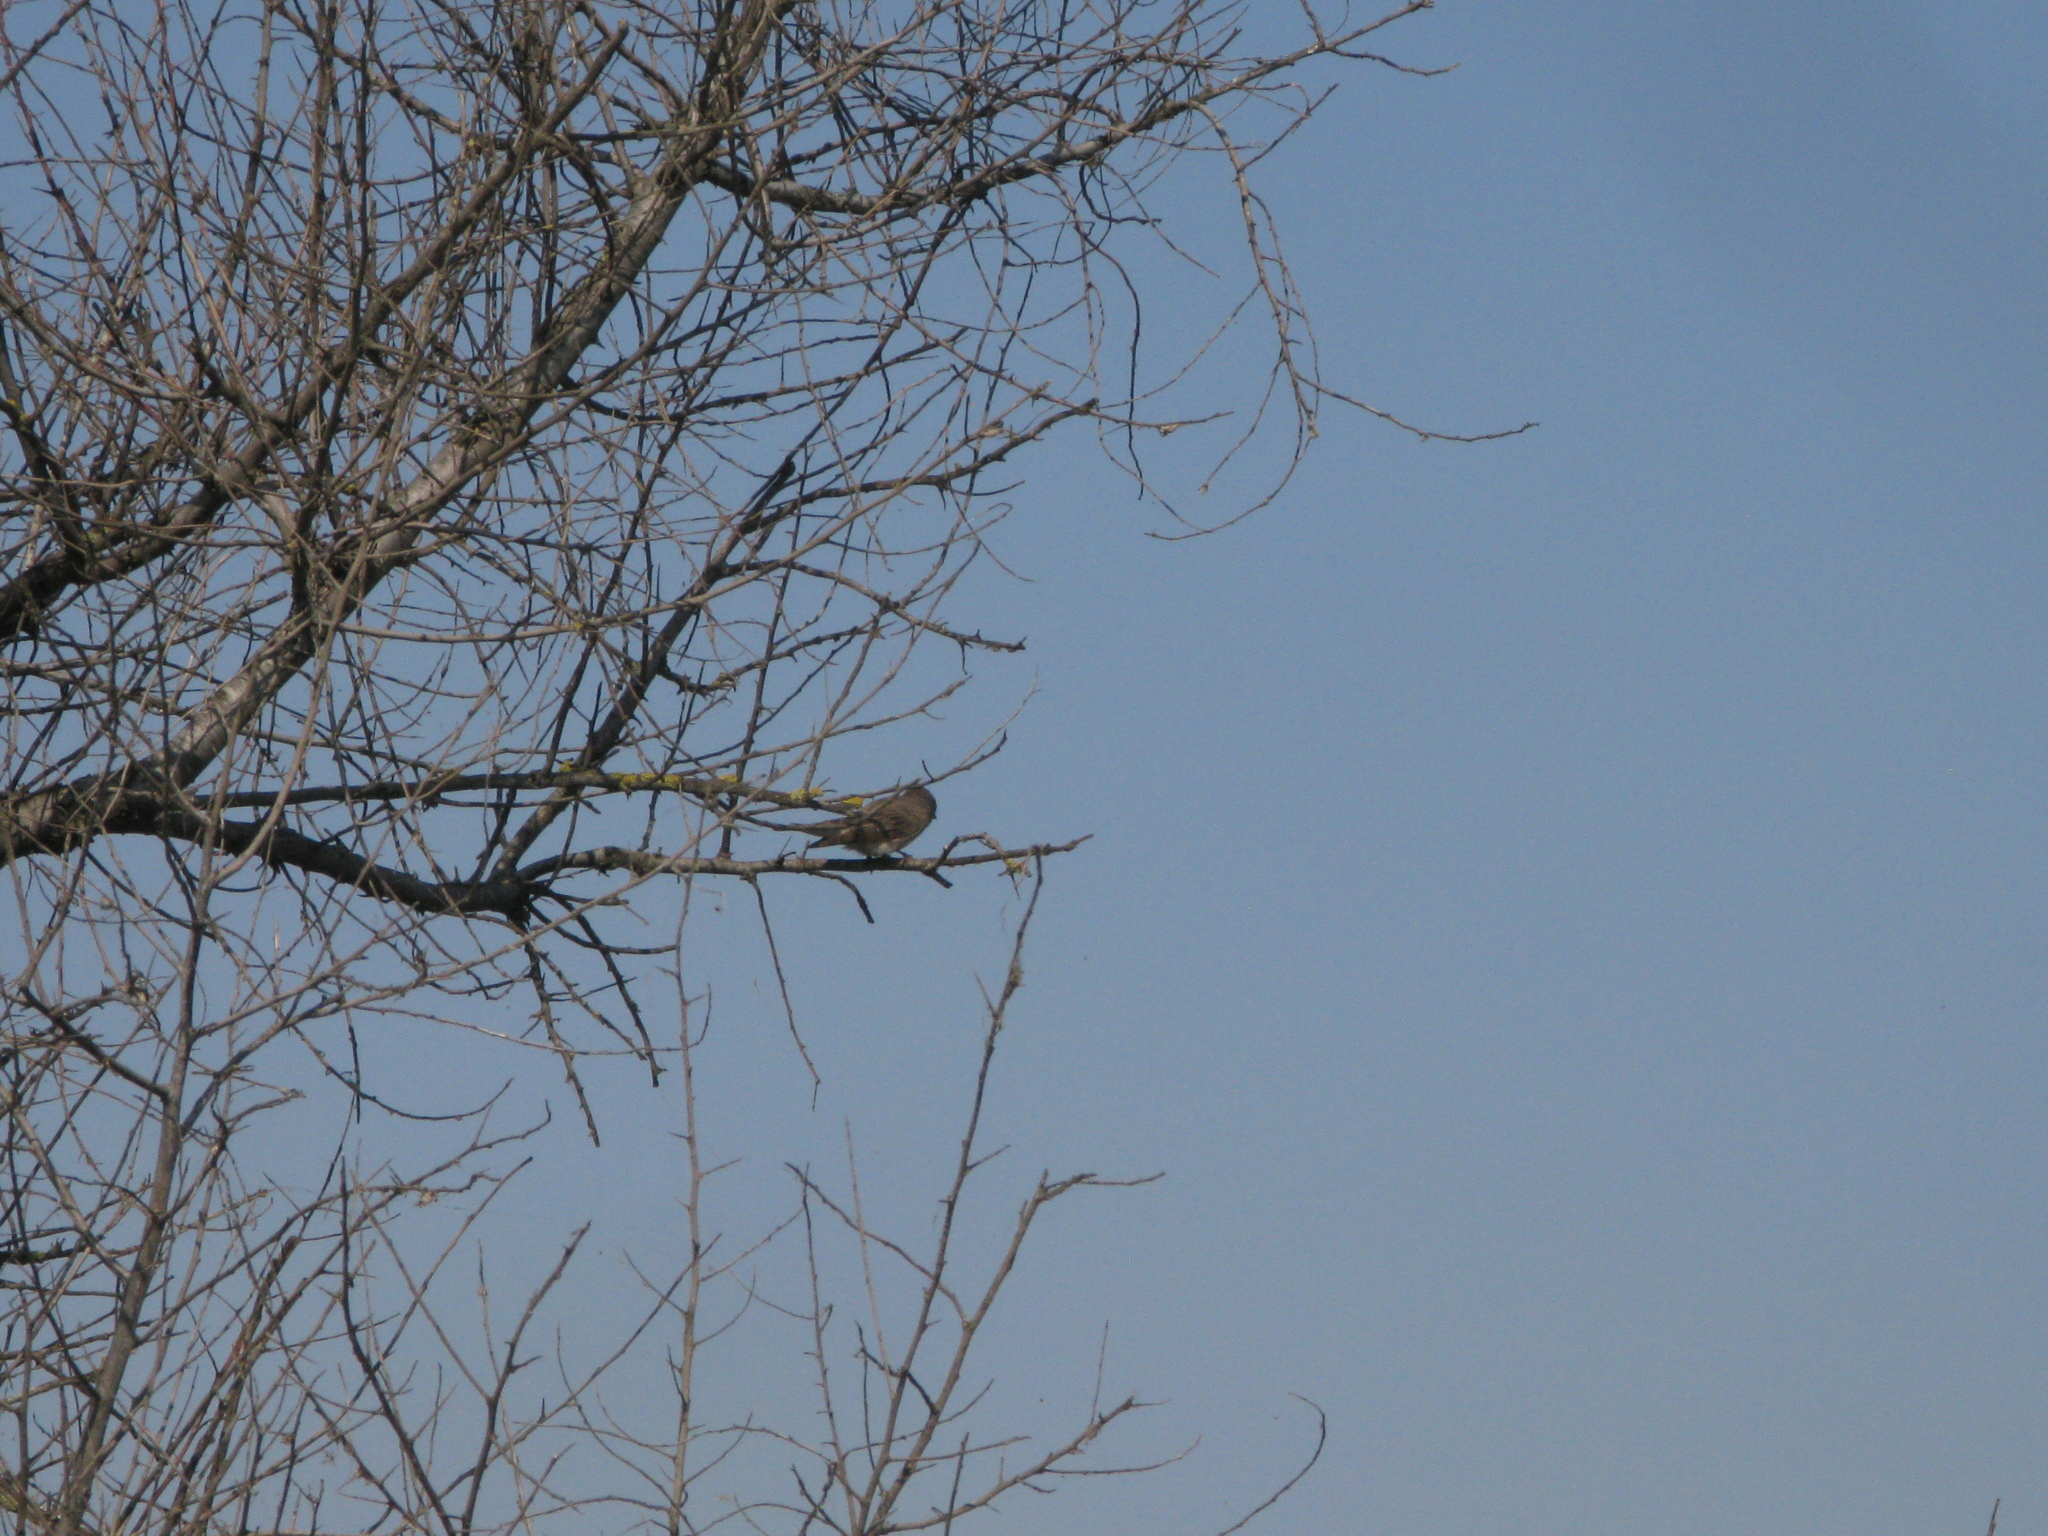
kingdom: Animalia
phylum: Chordata
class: Aves
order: Passeriformes
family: Muscicapidae
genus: Muscicapa
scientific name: Muscicapa striata
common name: Spotted flycatcher
